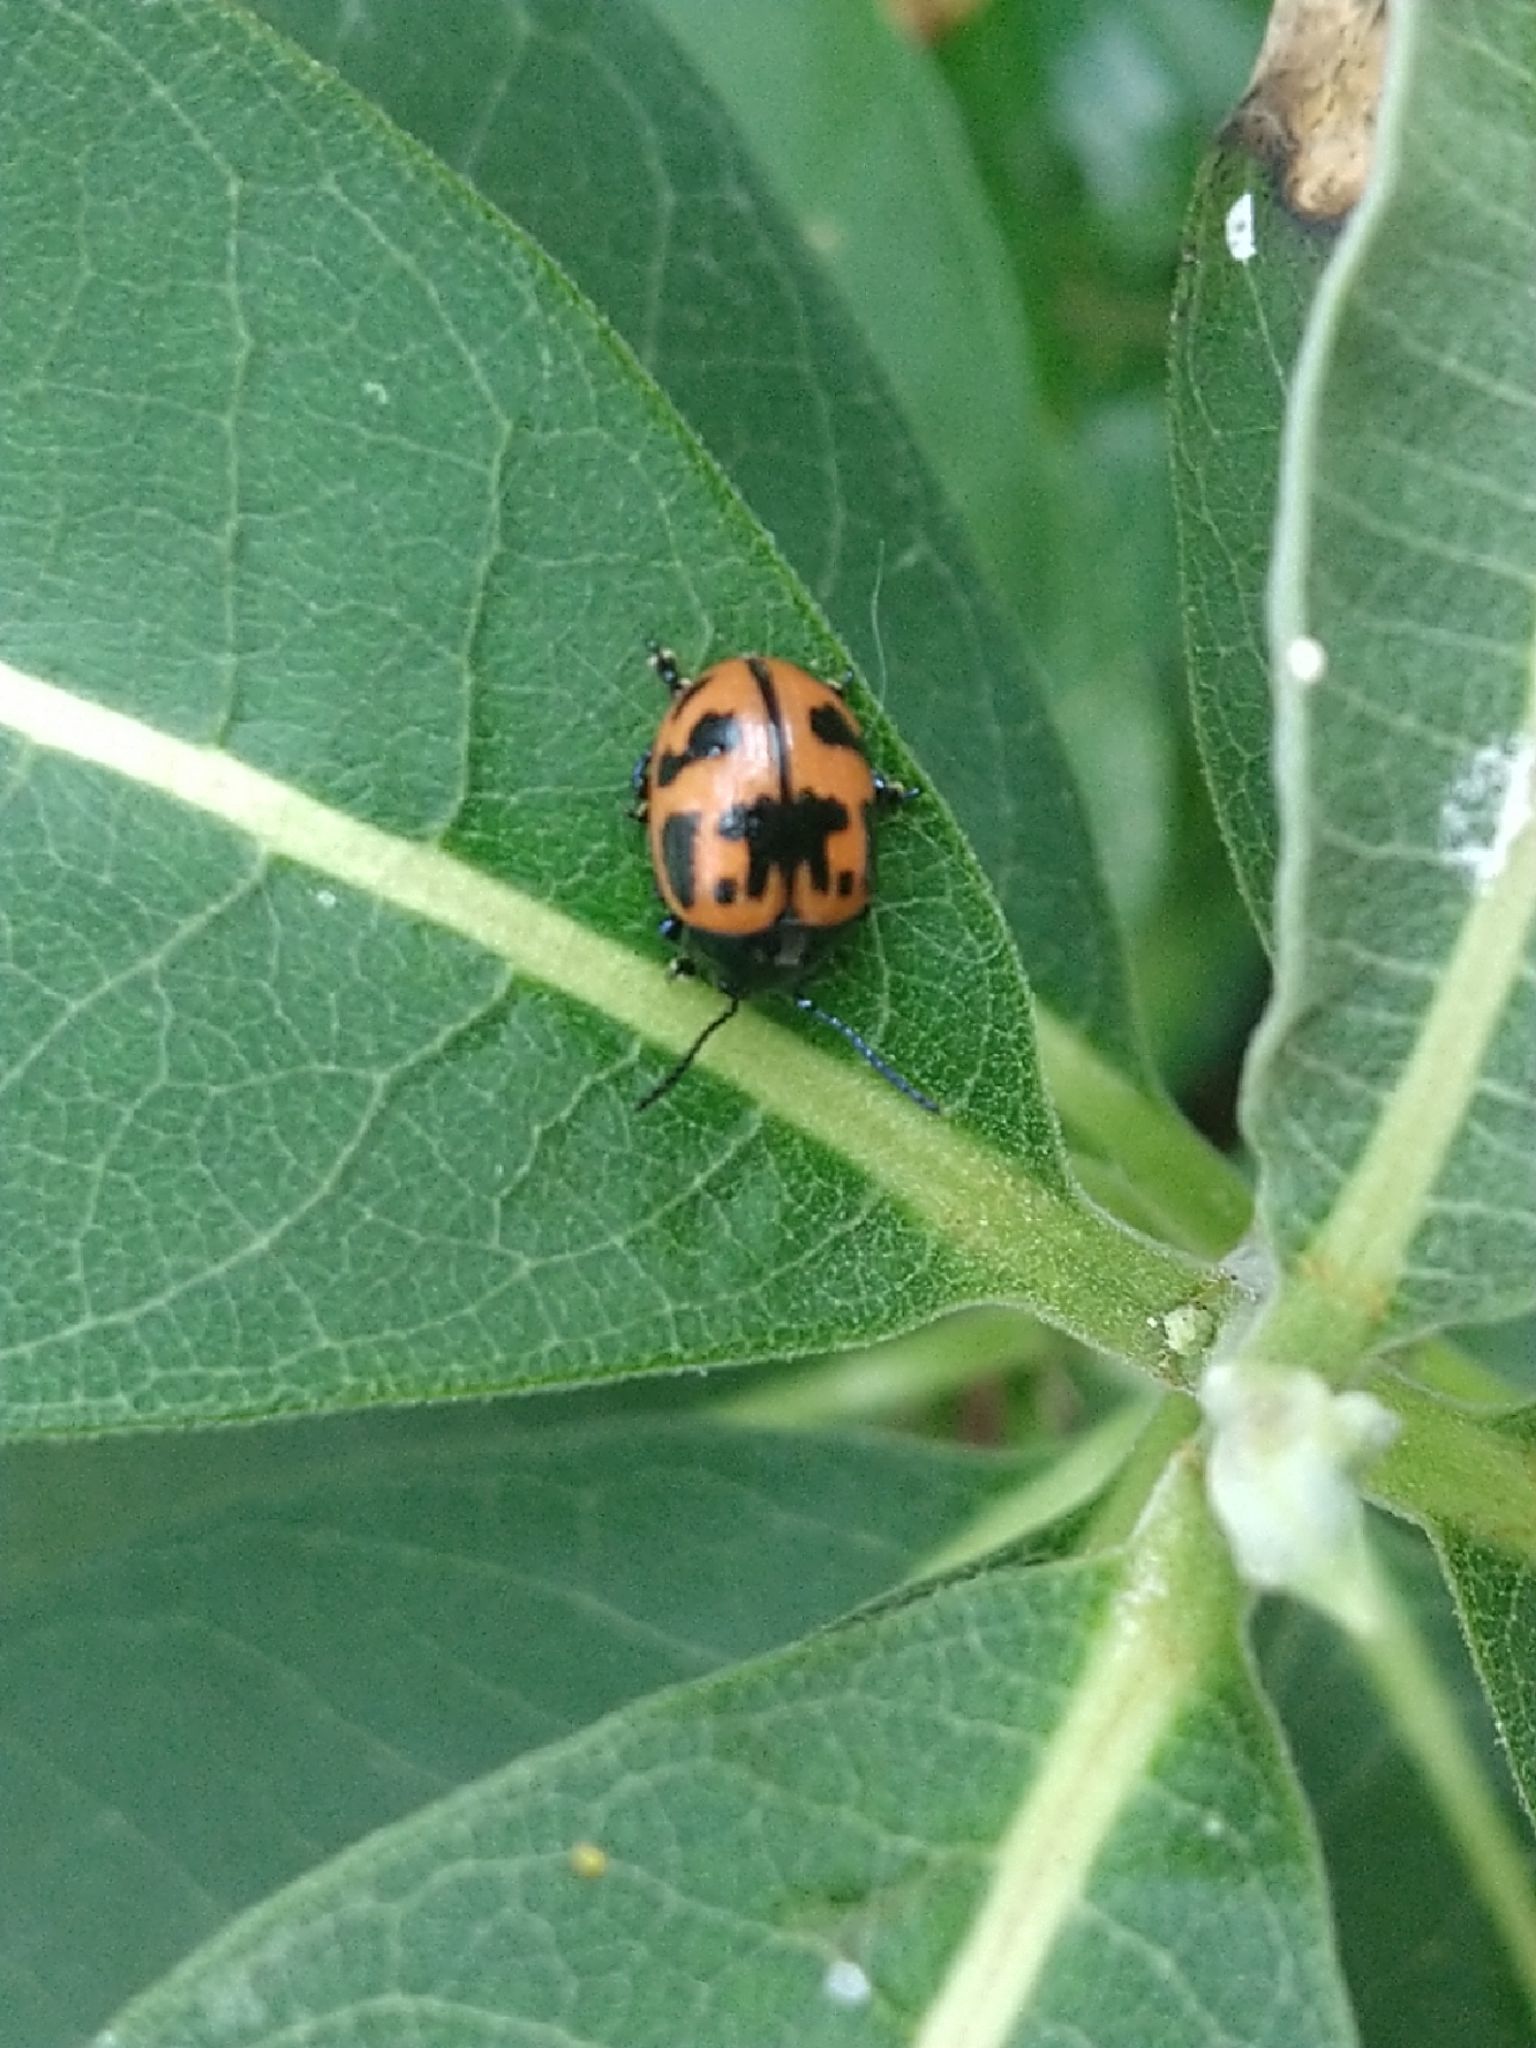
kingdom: Animalia
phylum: Arthropoda
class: Insecta
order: Coleoptera
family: Chrysomelidae
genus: Labidomera
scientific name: Labidomera clivicollis
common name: Swamp milkweed leaf beetle
